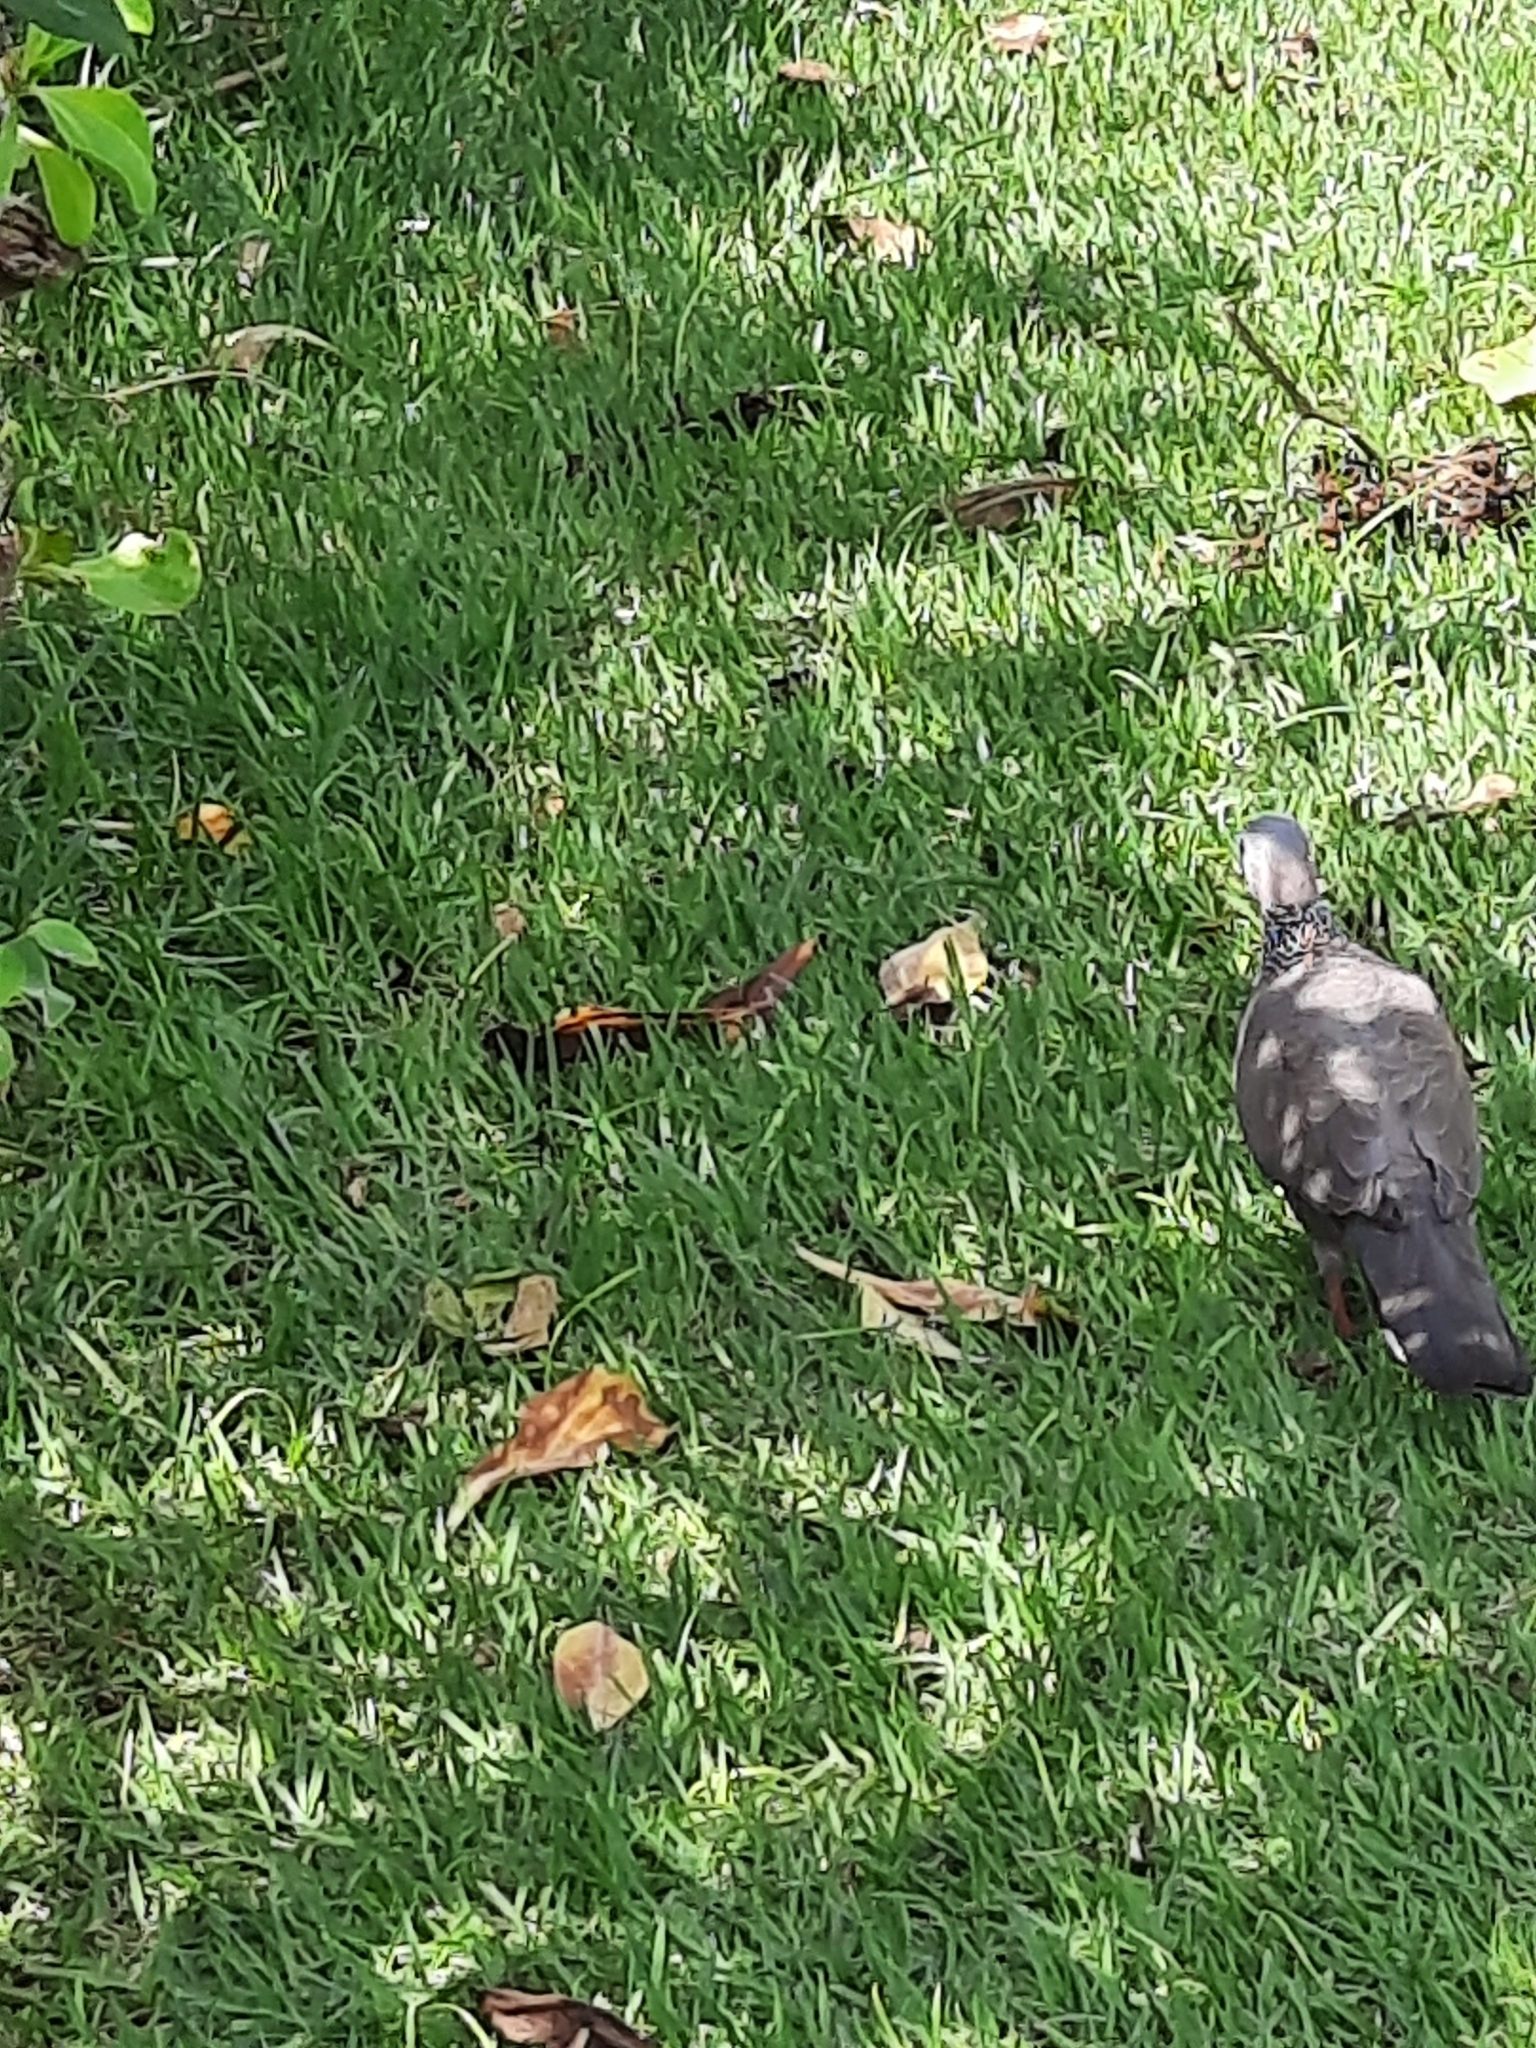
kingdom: Animalia
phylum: Chordata
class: Aves
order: Columbiformes
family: Columbidae
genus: Spilopelia
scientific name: Spilopelia chinensis
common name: Spotted dove
